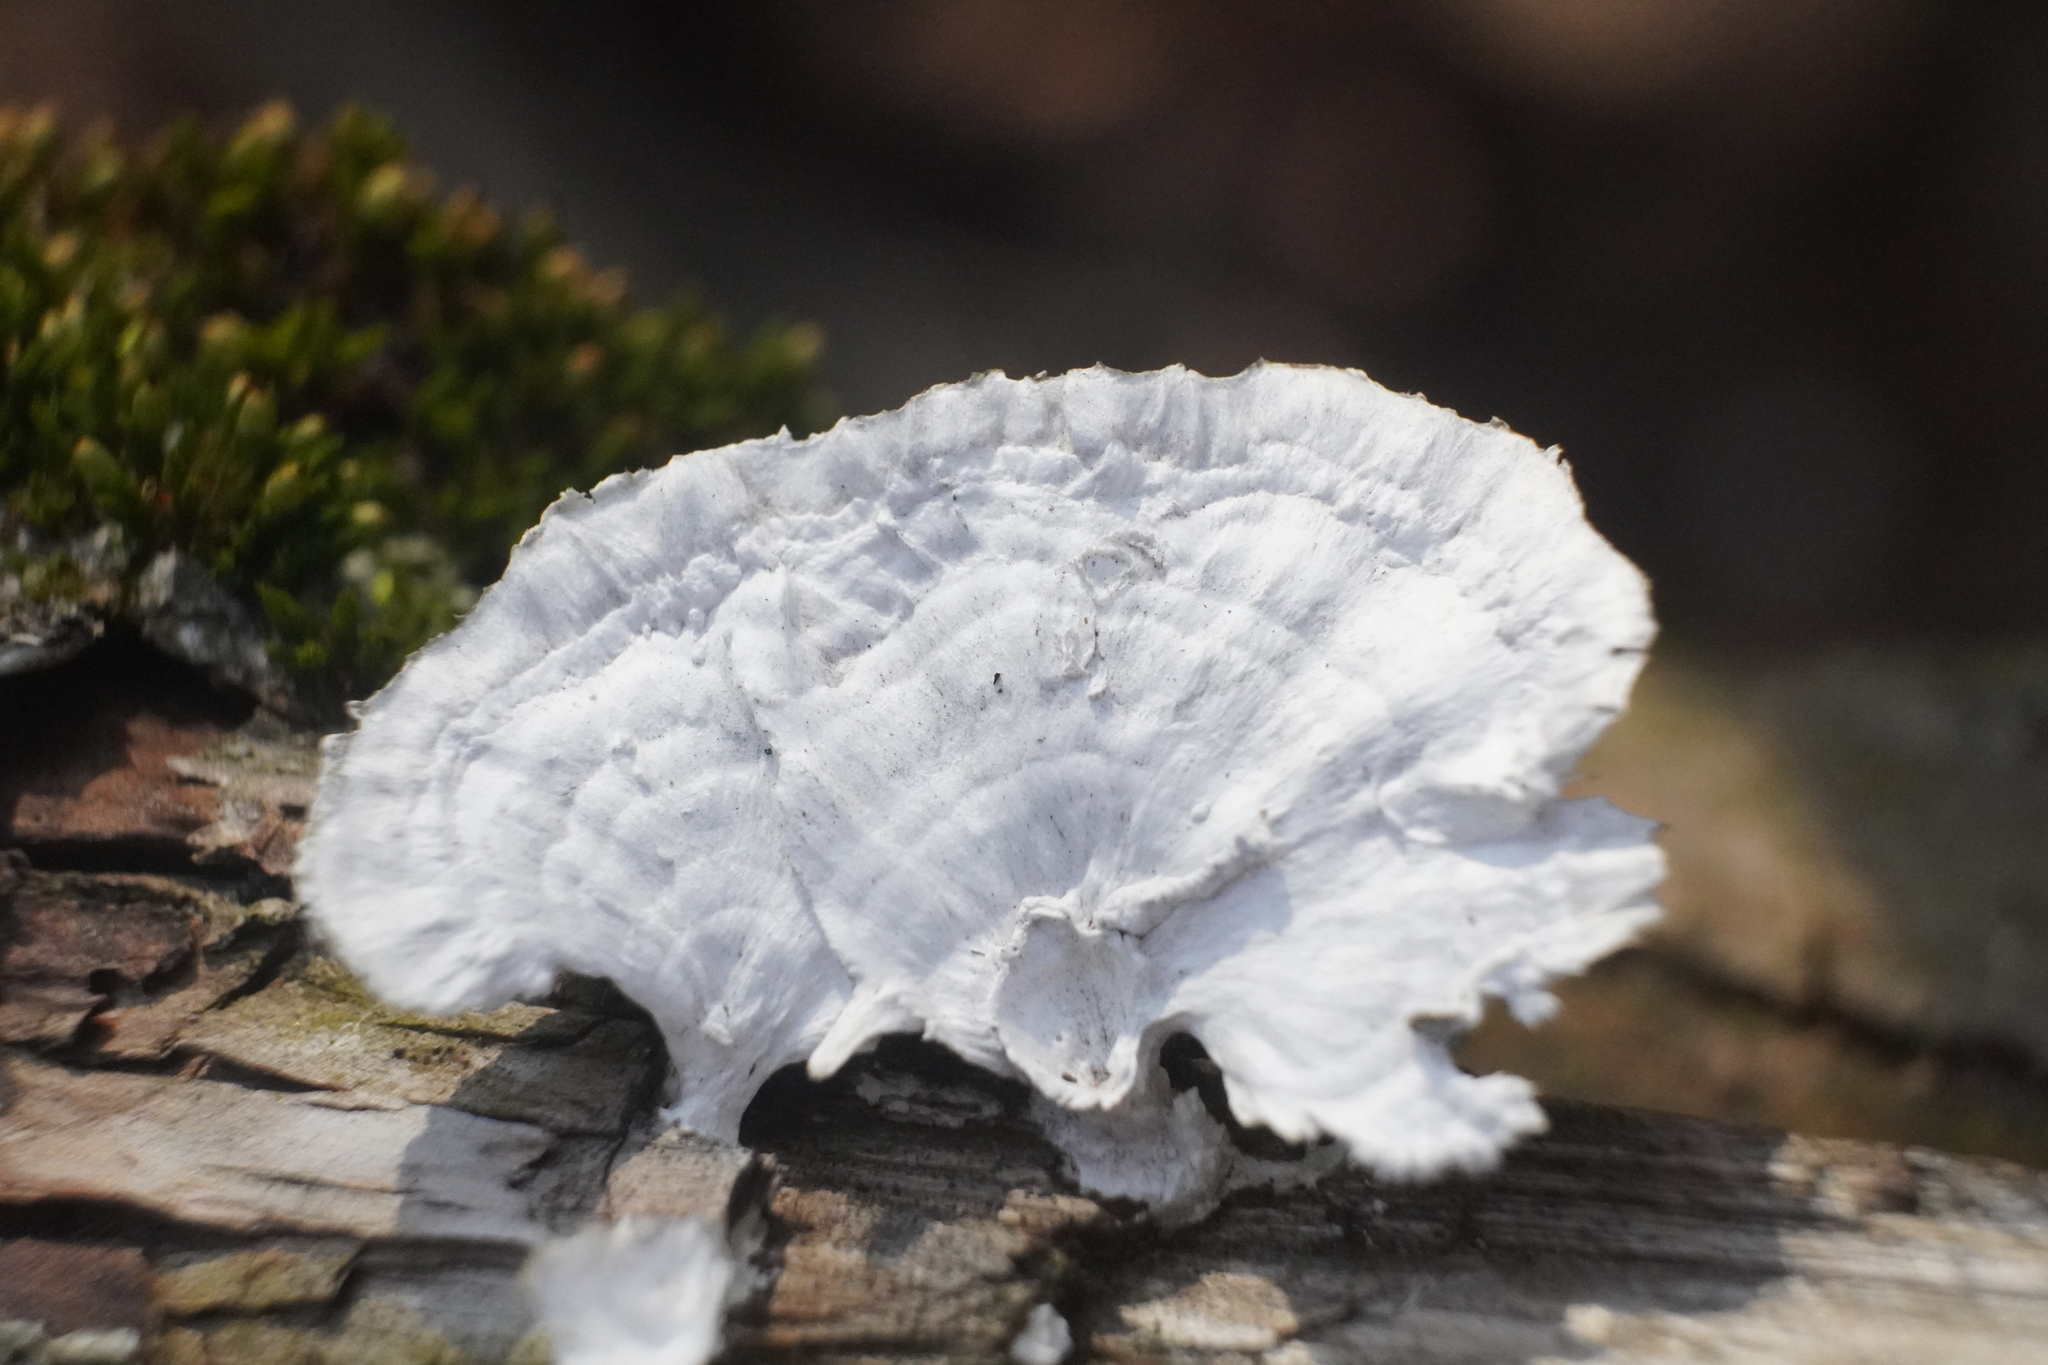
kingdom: Fungi
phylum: Basidiomycota
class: Agaricomycetes
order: Polyporales
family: Polyporaceae
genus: Poronidulus
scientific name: Poronidulus conchifer
